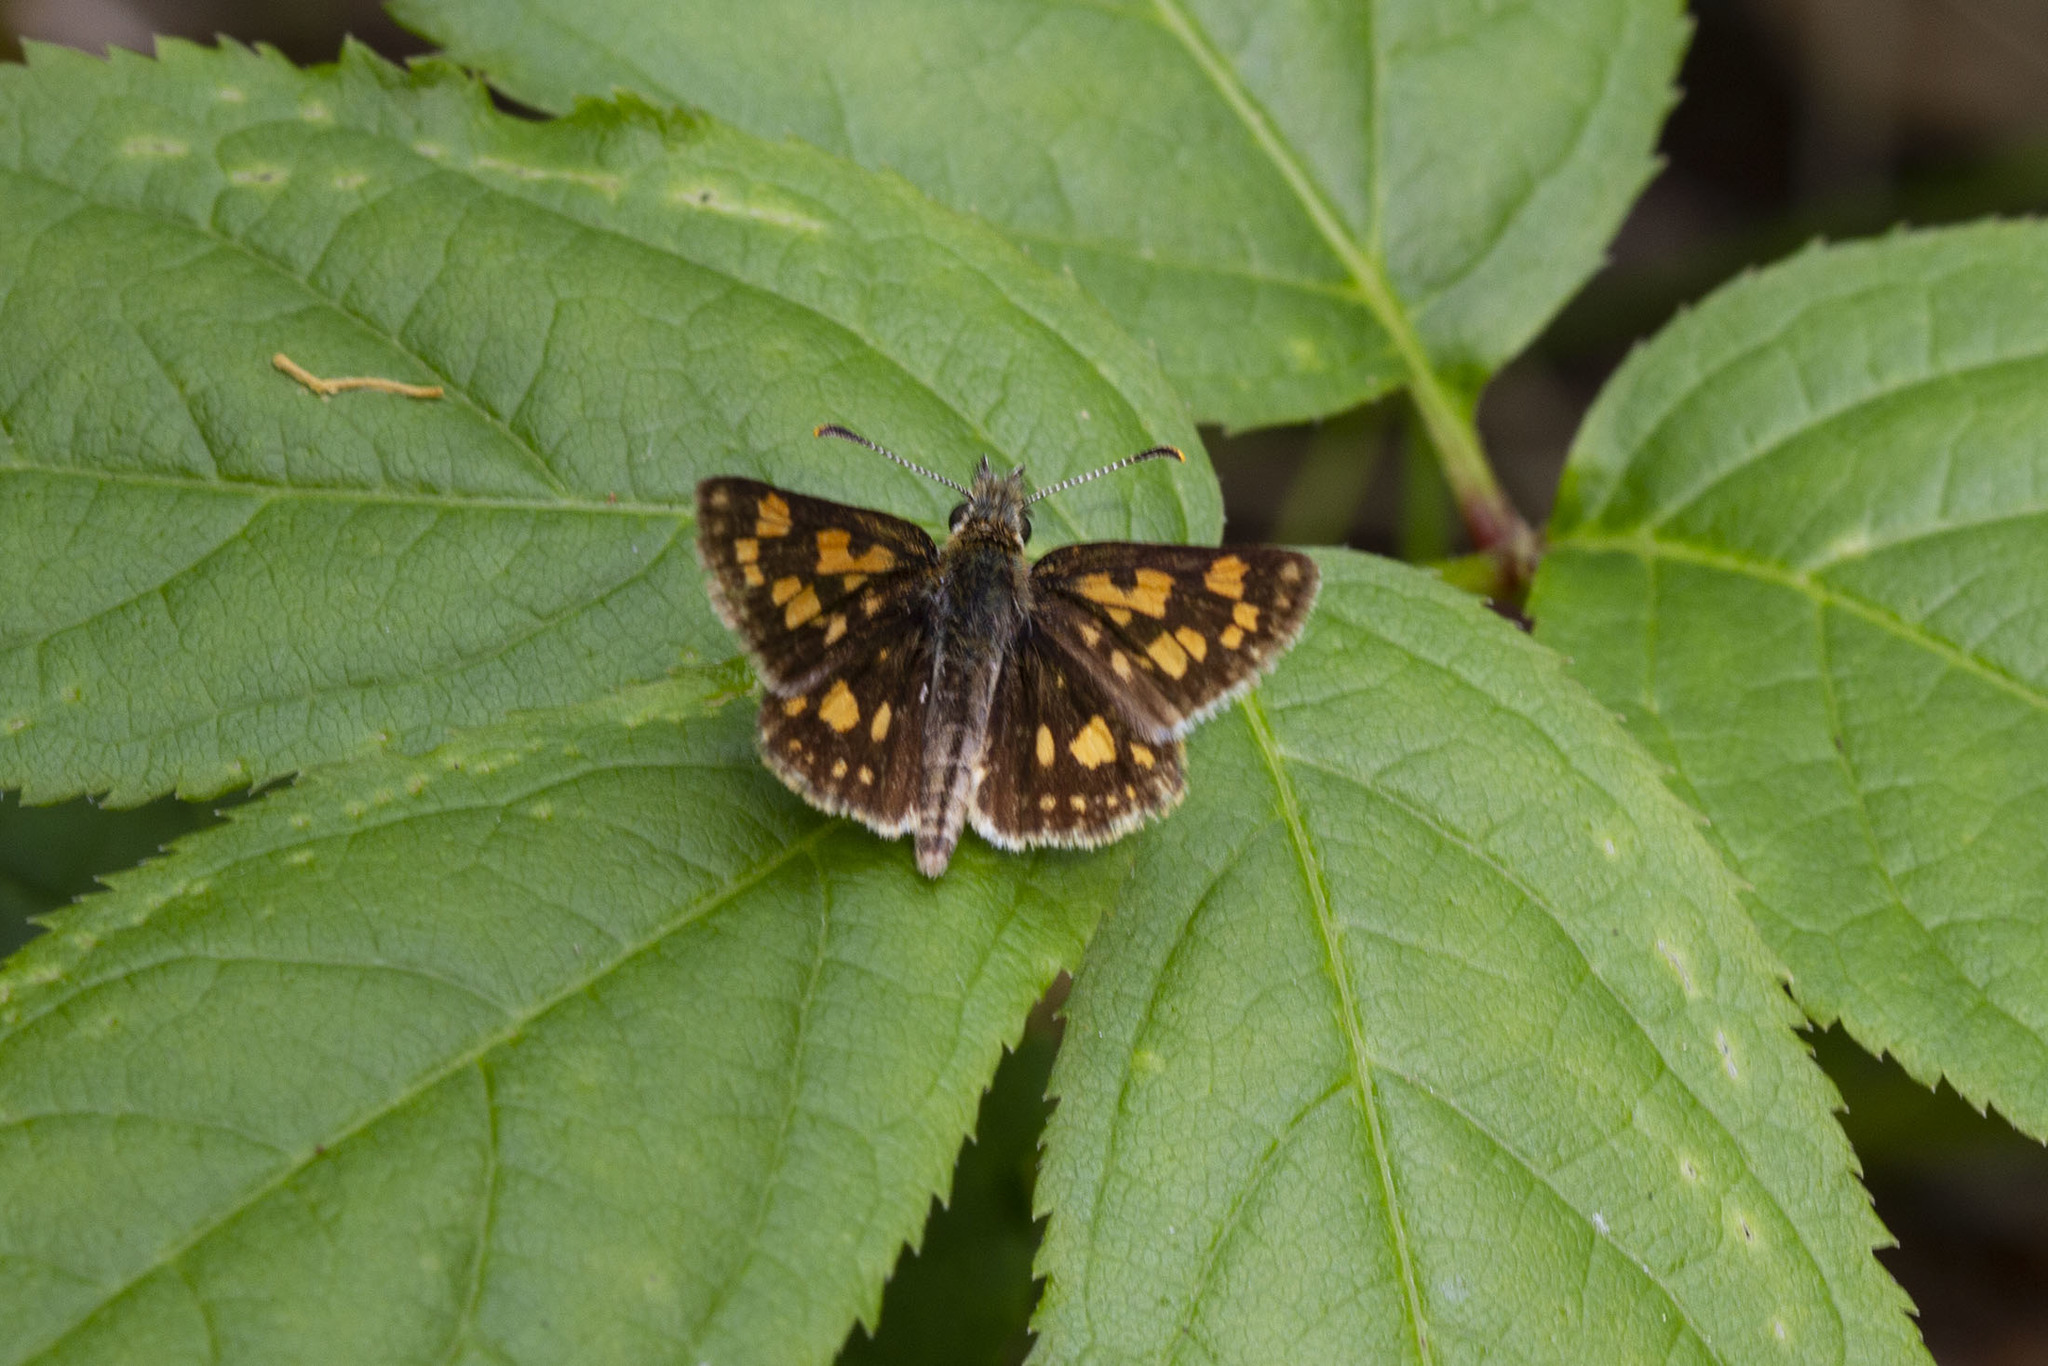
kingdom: Animalia
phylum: Arthropoda
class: Insecta
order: Lepidoptera
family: Hesperiidae
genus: Carterocephalus
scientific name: Carterocephalus mandan
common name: Arctic skipperling
